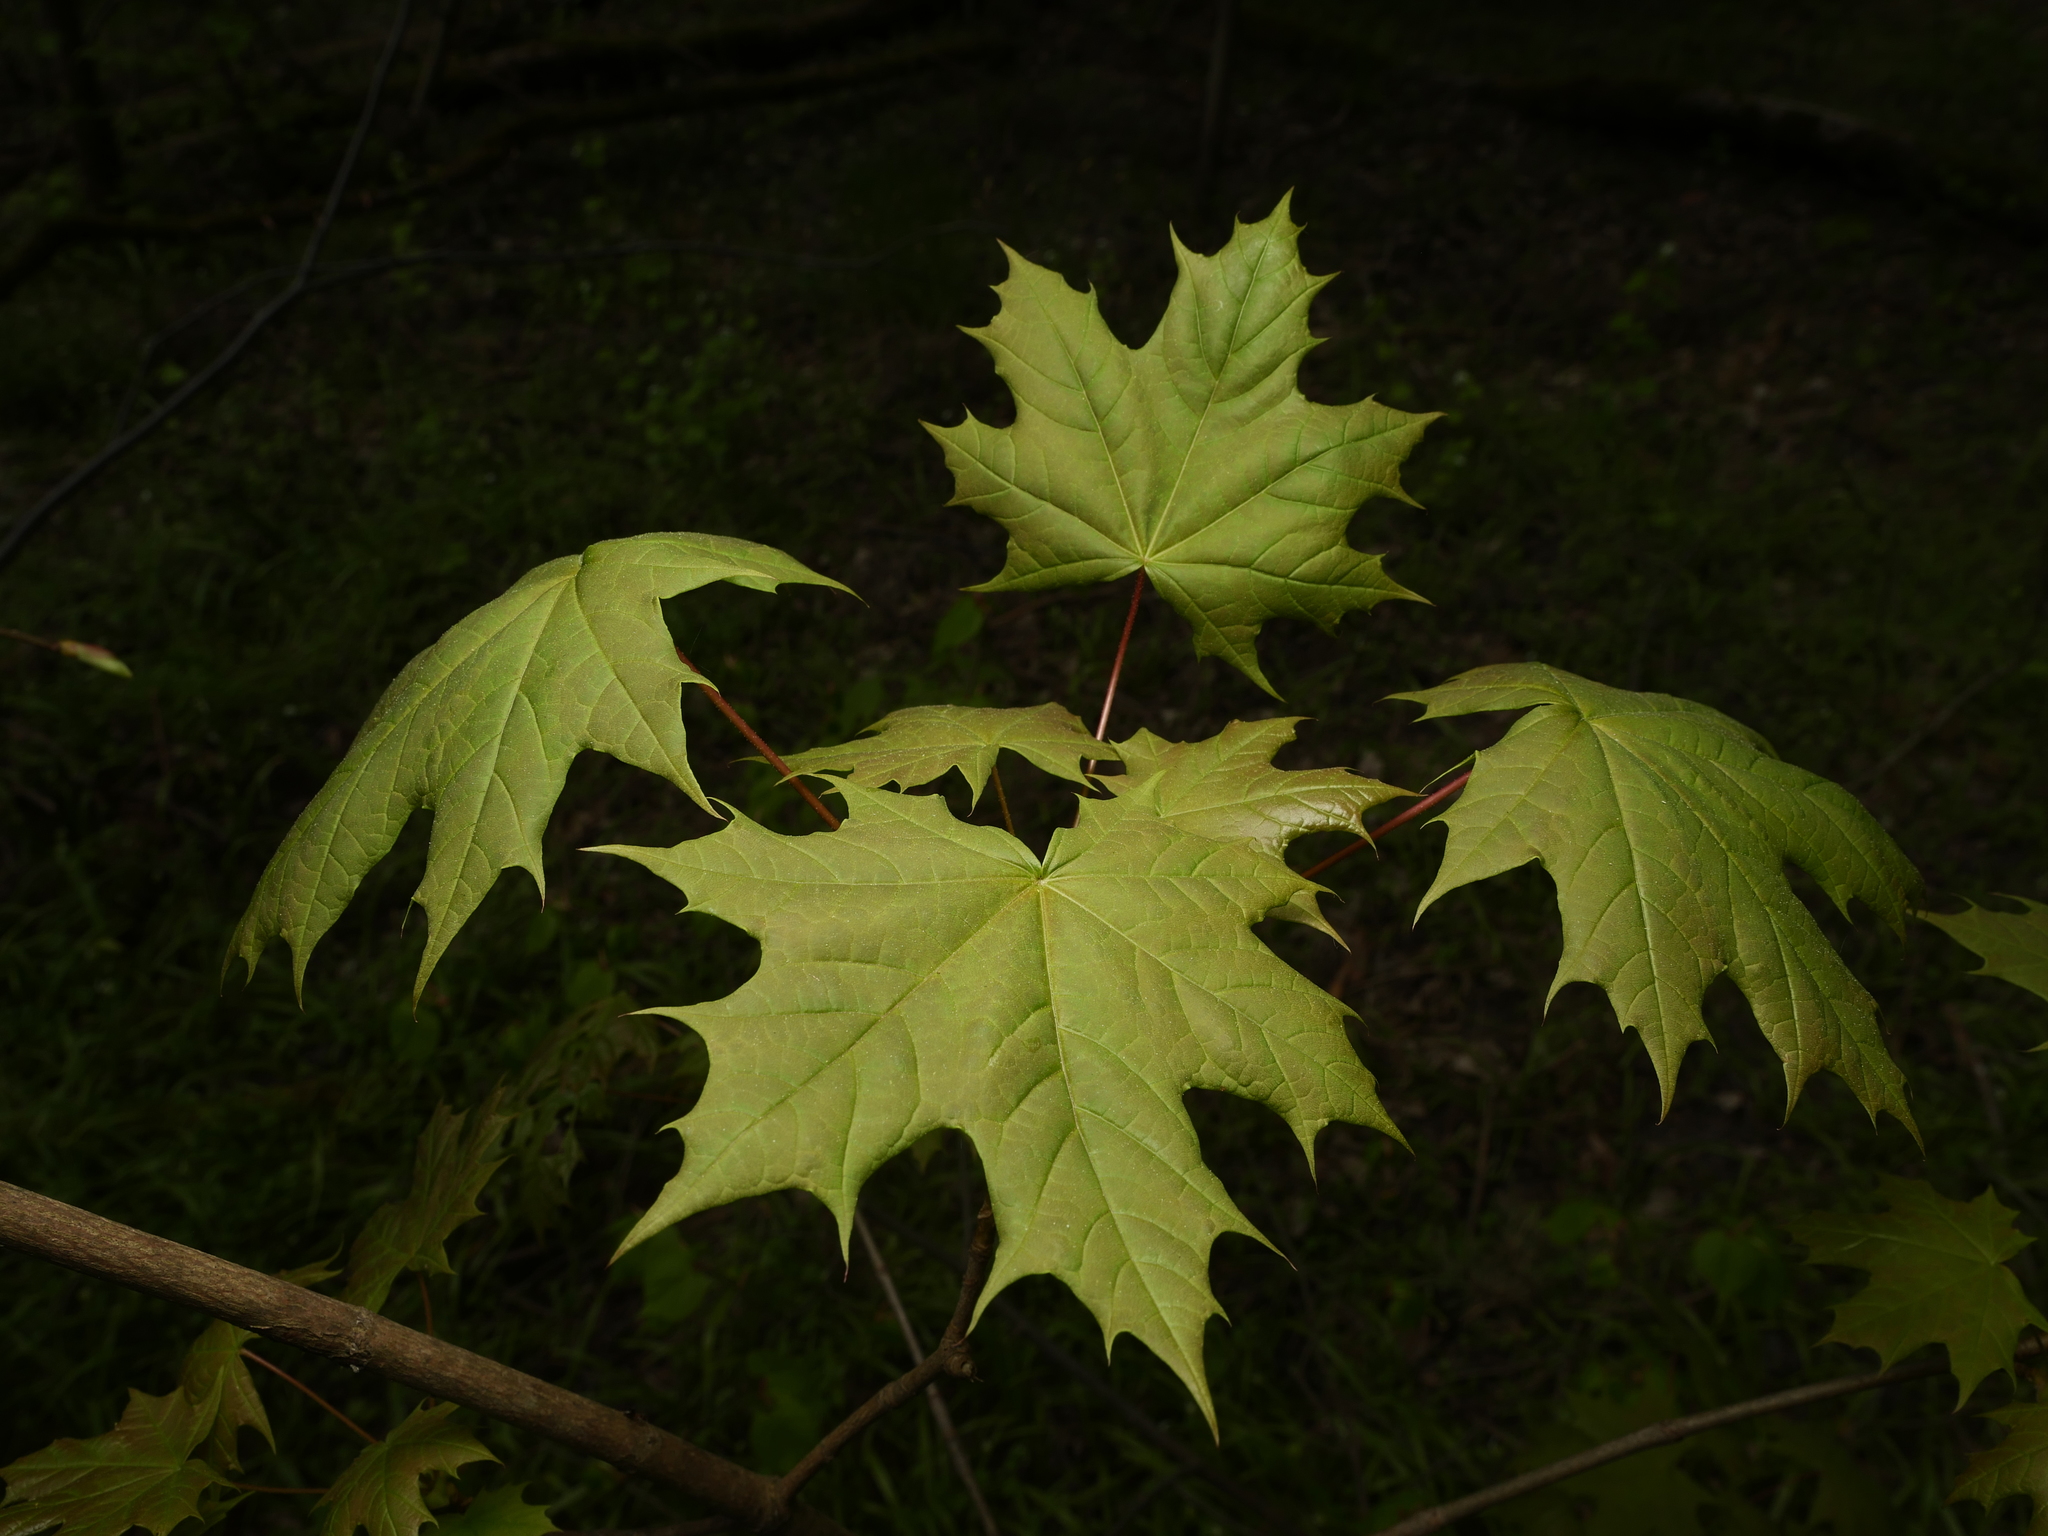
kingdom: Plantae
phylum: Tracheophyta
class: Magnoliopsida
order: Sapindales
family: Sapindaceae
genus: Acer
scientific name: Acer platanoides
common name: Norway maple
